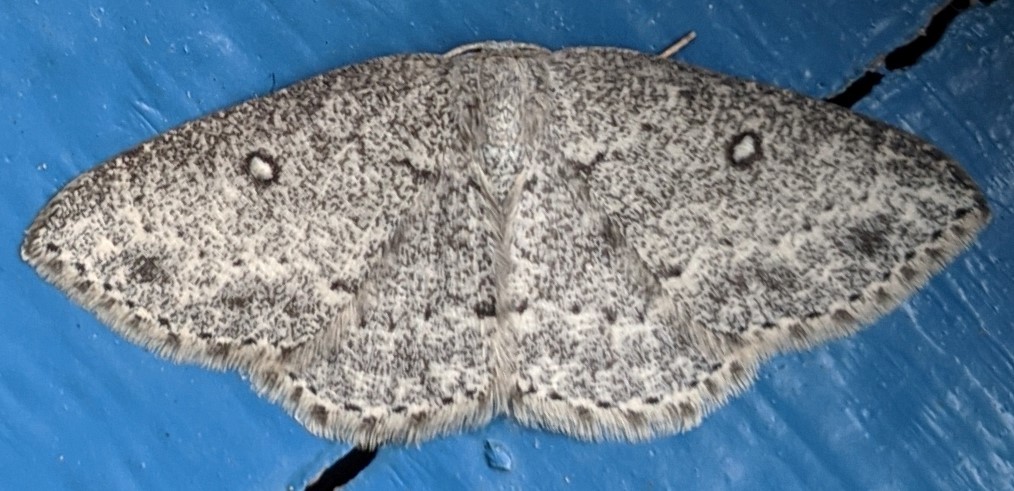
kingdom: Animalia
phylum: Arthropoda
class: Insecta
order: Lepidoptera
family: Geometridae
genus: Cyclophora
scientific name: Cyclophora pendulinaria
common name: Sweet fern geometer
